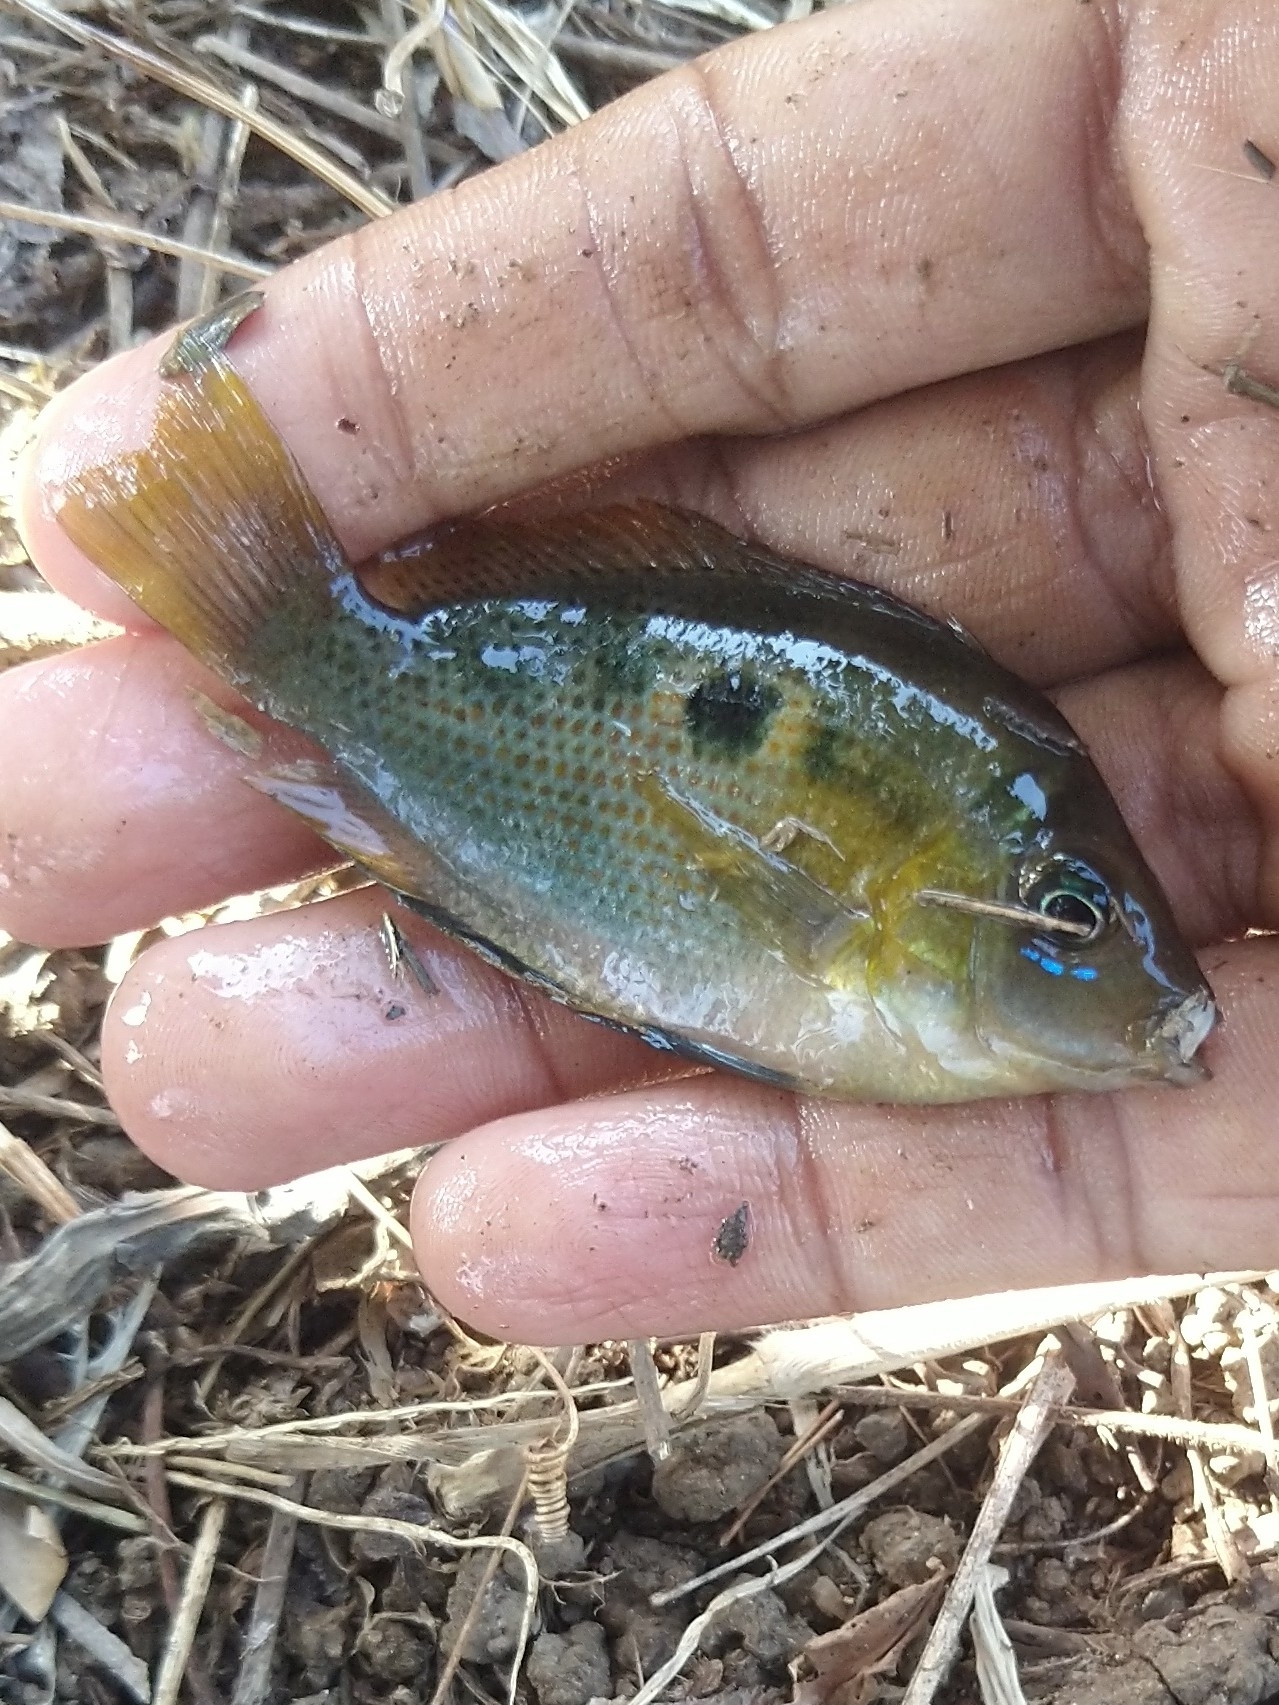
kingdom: Animalia
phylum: Chordata
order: Perciformes
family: Cichlidae
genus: Etroplus
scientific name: Etroplus maculatus
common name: Orange chromide
